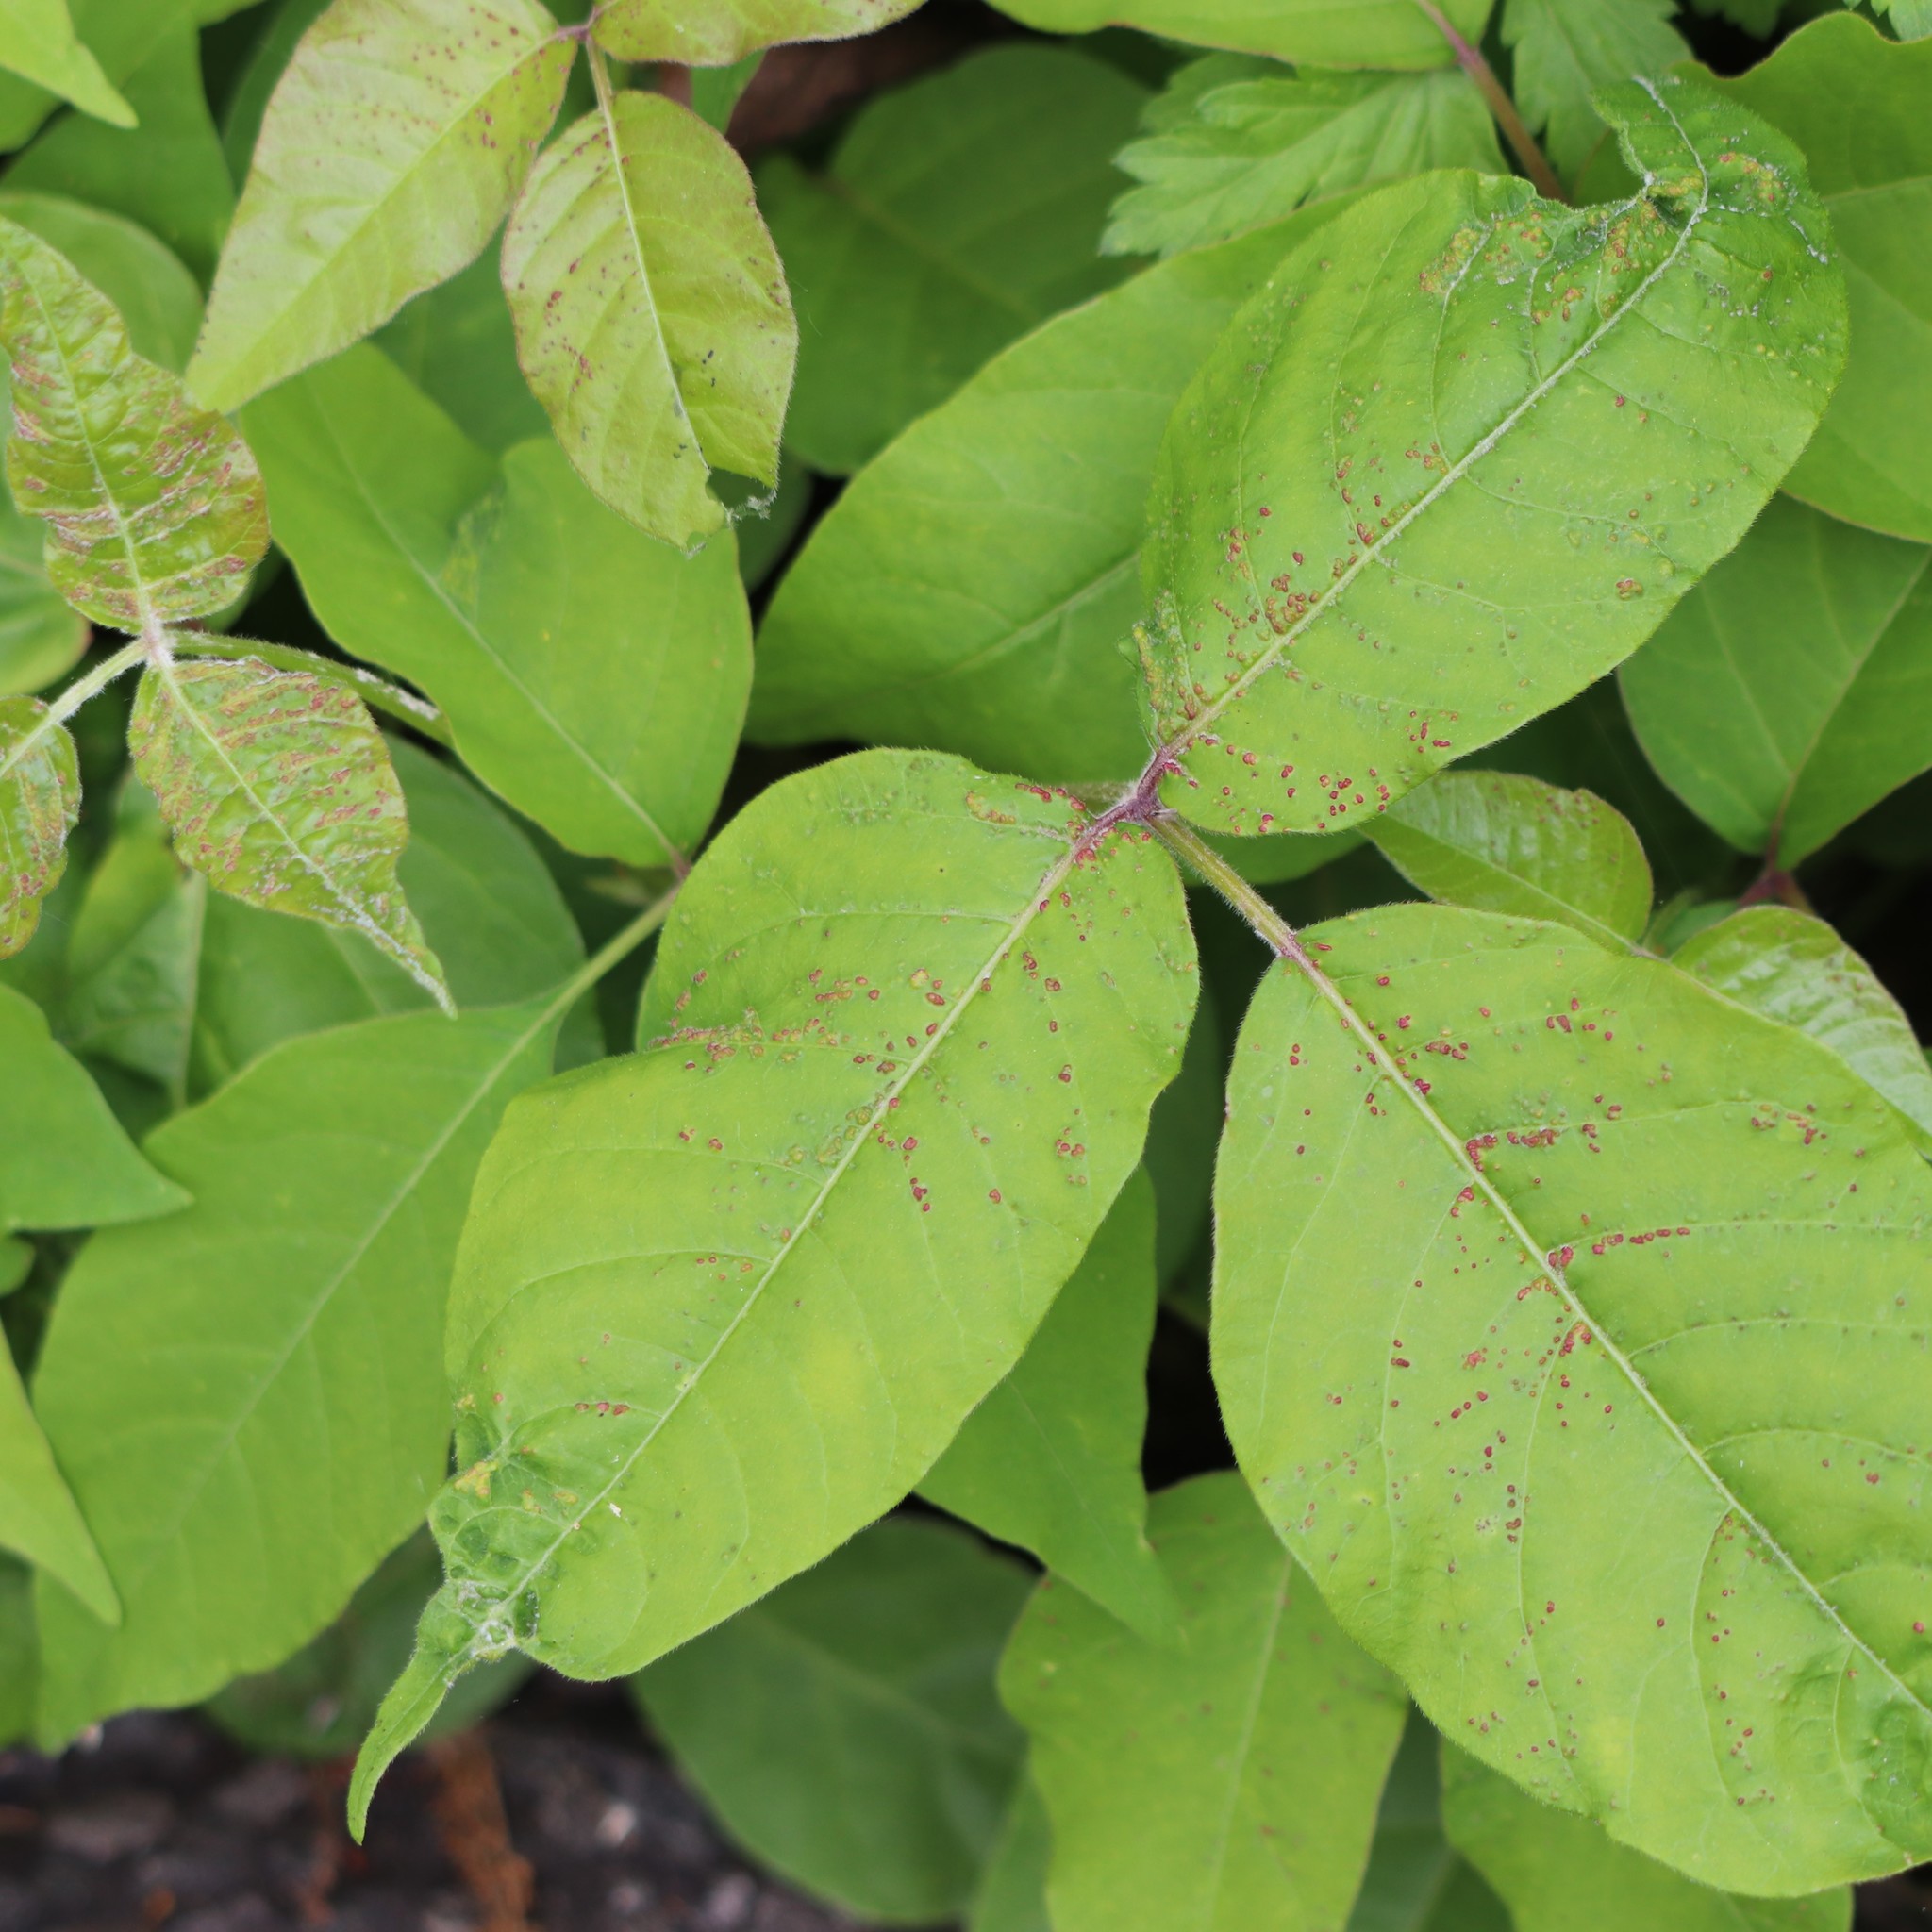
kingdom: Animalia
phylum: Arthropoda
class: Arachnida
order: Trombidiformes
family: Eriophyidae
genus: Aculops
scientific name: Aculops
